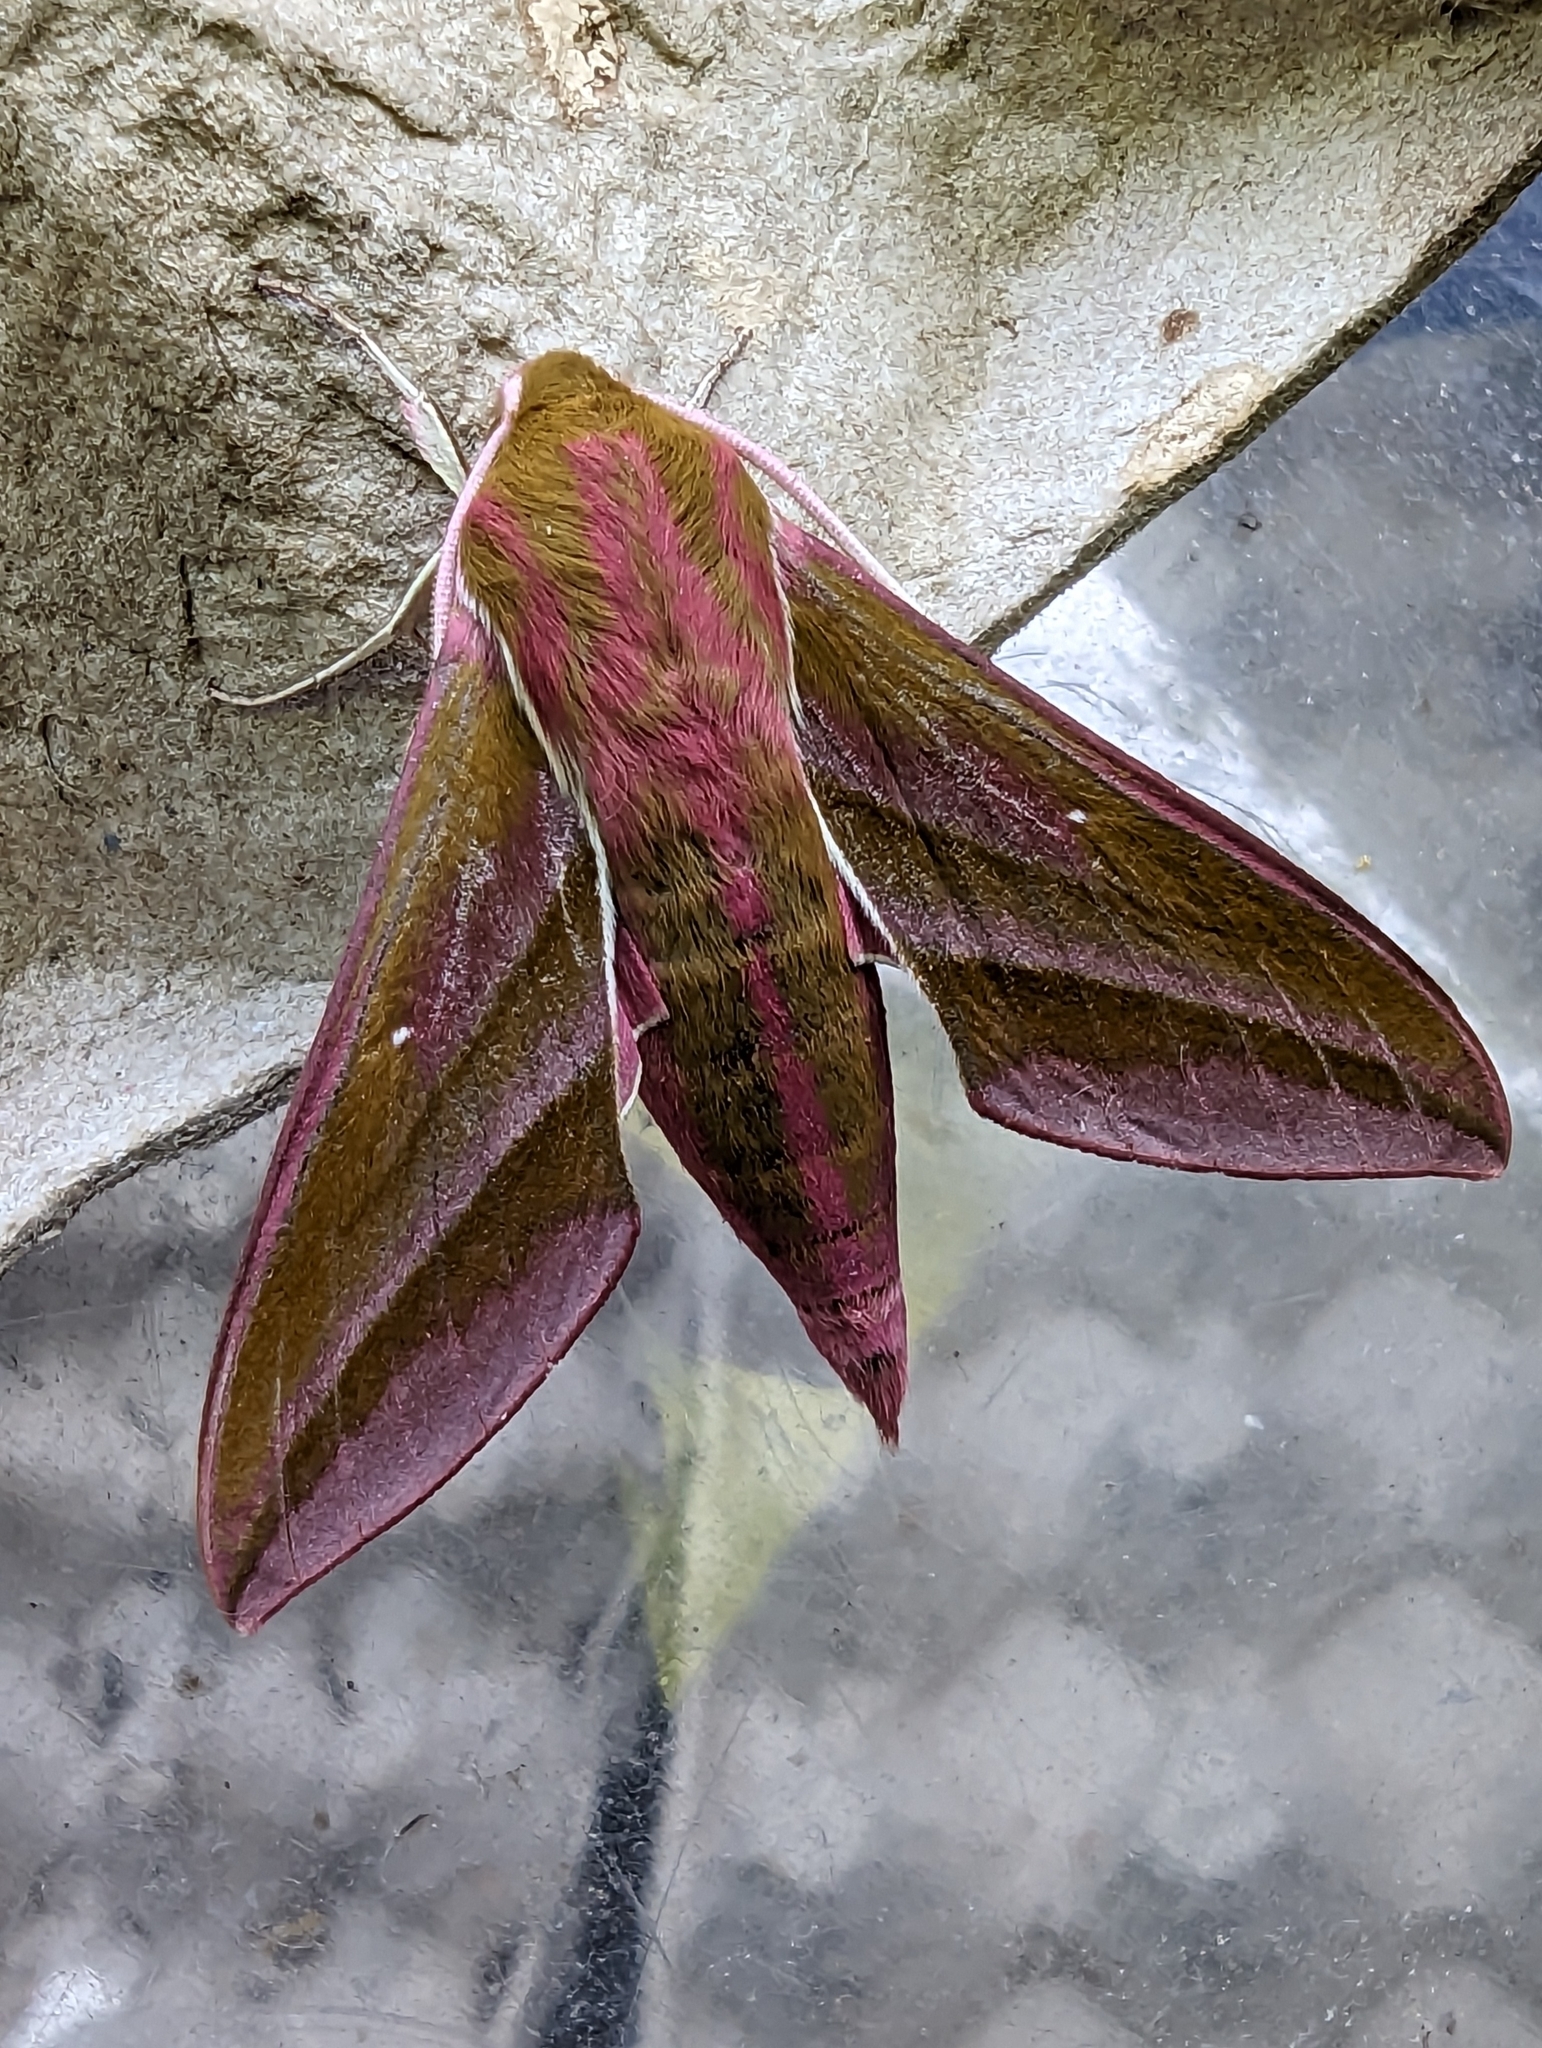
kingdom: Animalia
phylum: Arthropoda
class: Insecta
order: Lepidoptera
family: Sphingidae
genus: Deilephila
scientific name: Deilephila elpenor
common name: Elephant hawk-moth
